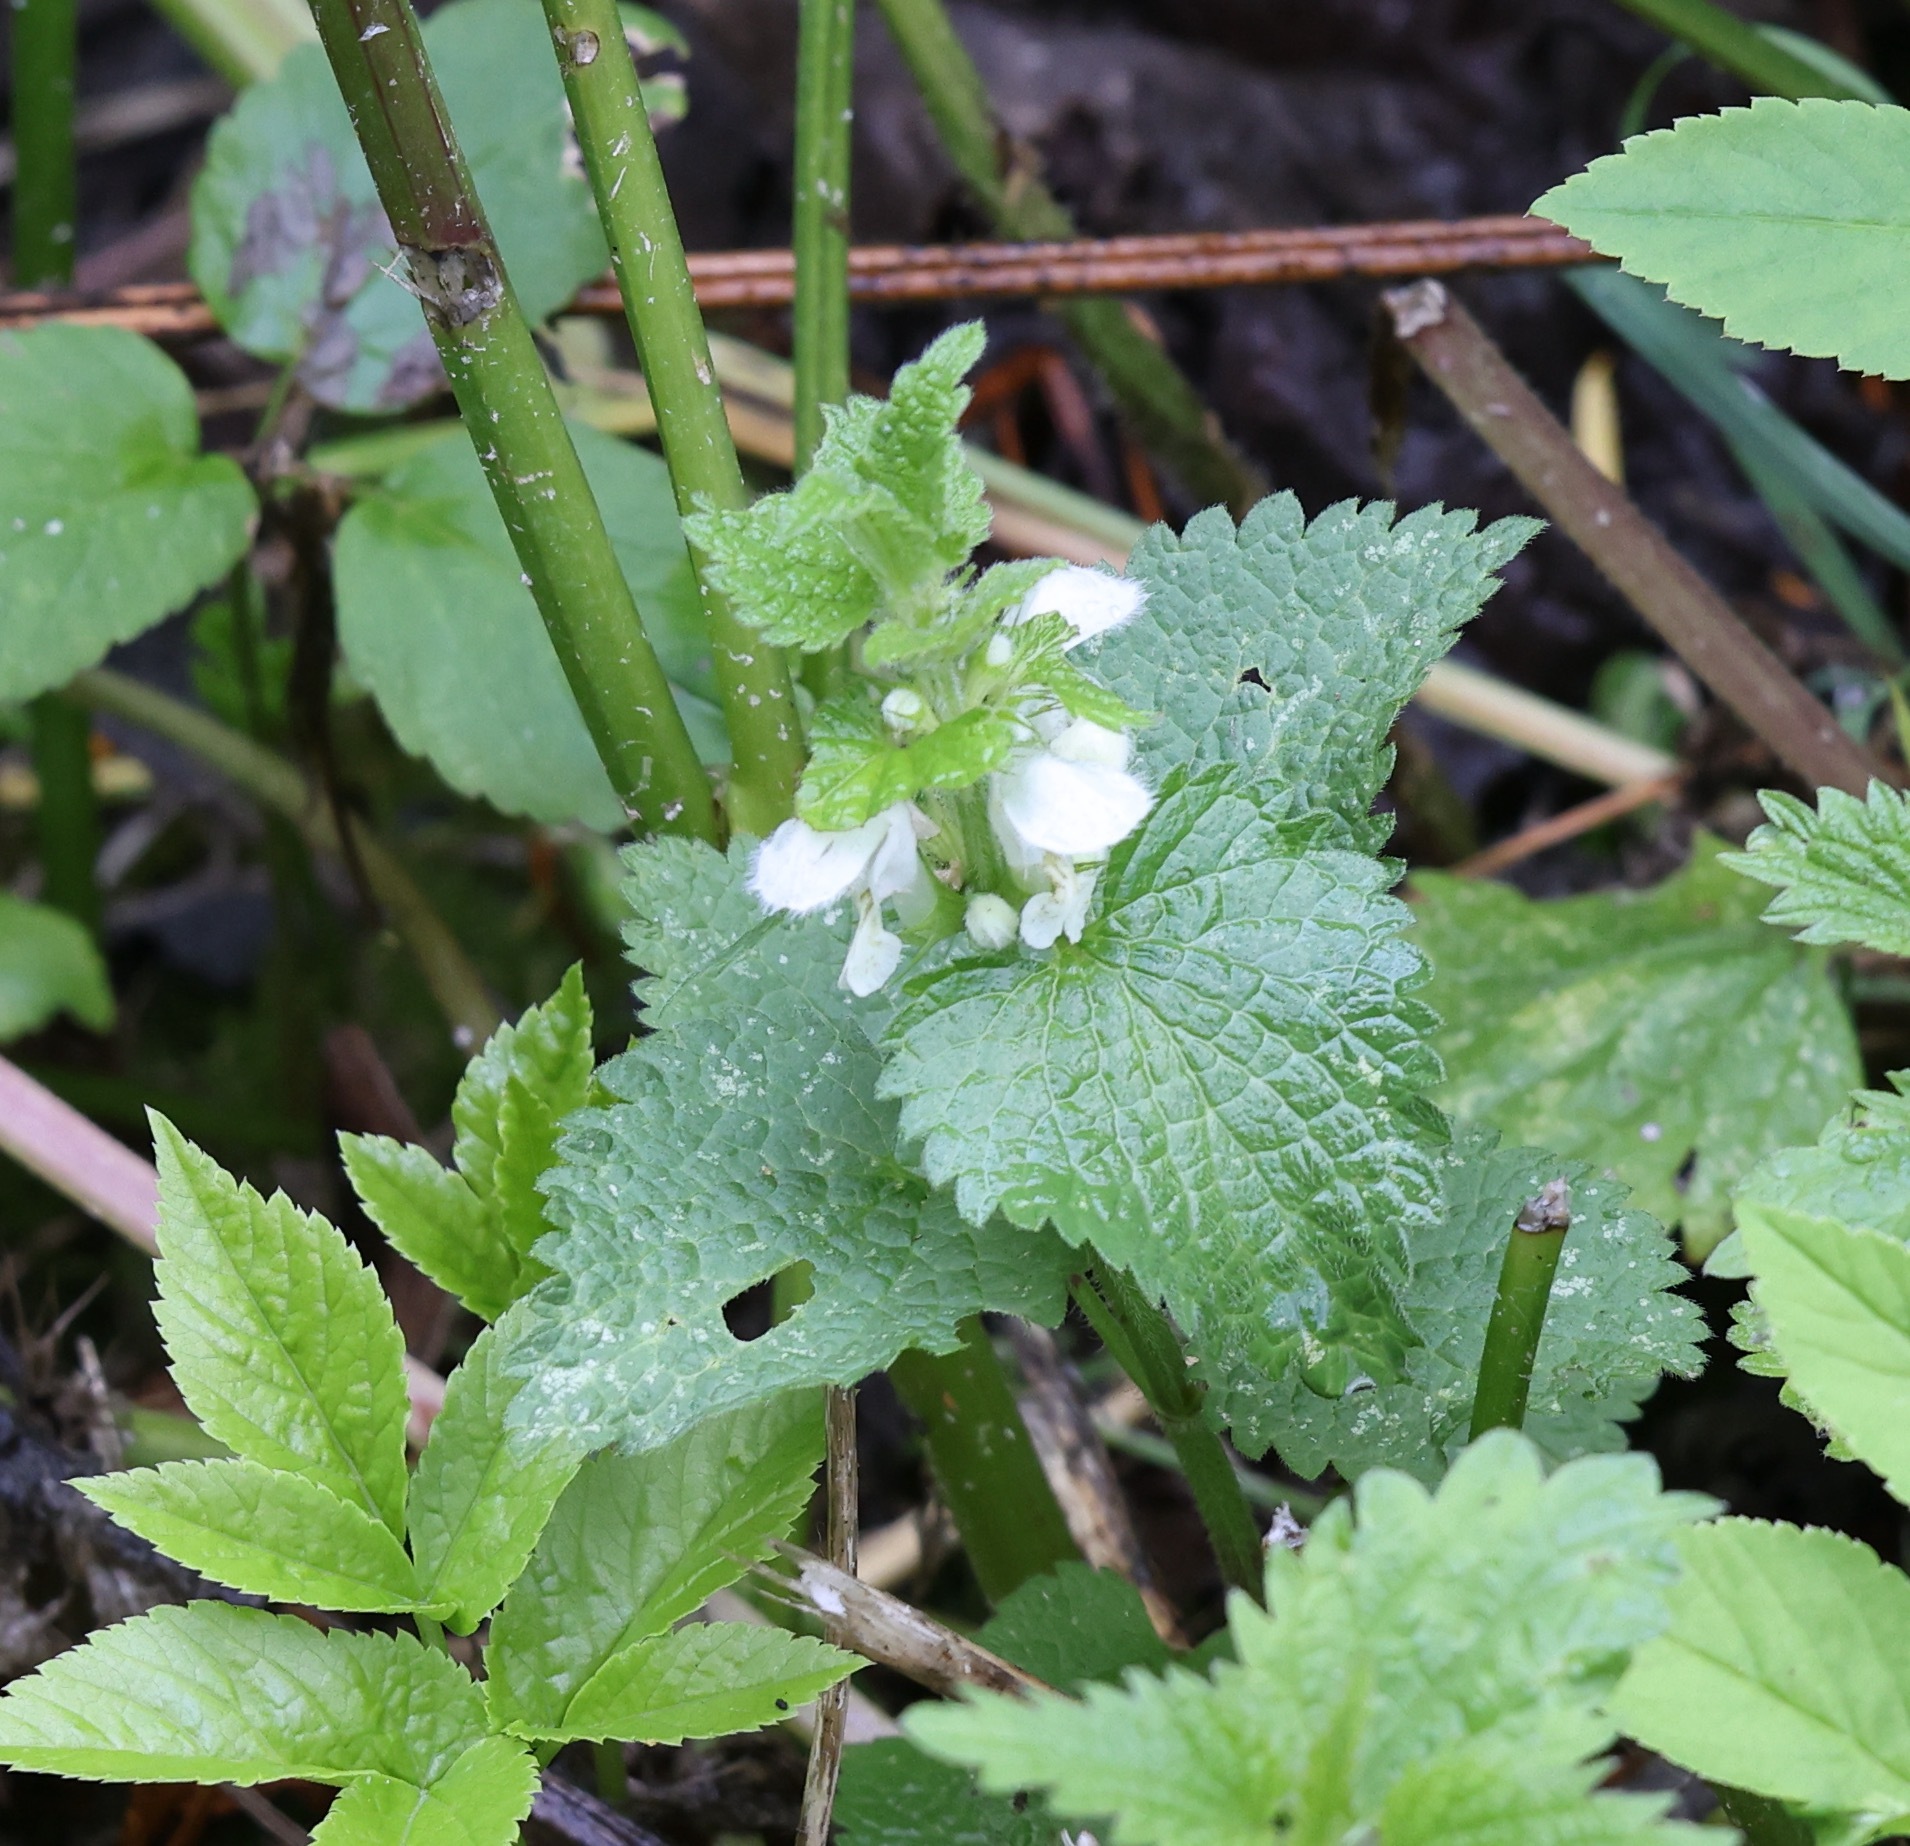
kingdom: Plantae
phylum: Tracheophyta
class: Magnoliopsida
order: Lamiales
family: Lamiaceae
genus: Lamium
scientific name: Lamium album
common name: White dead-nettle
